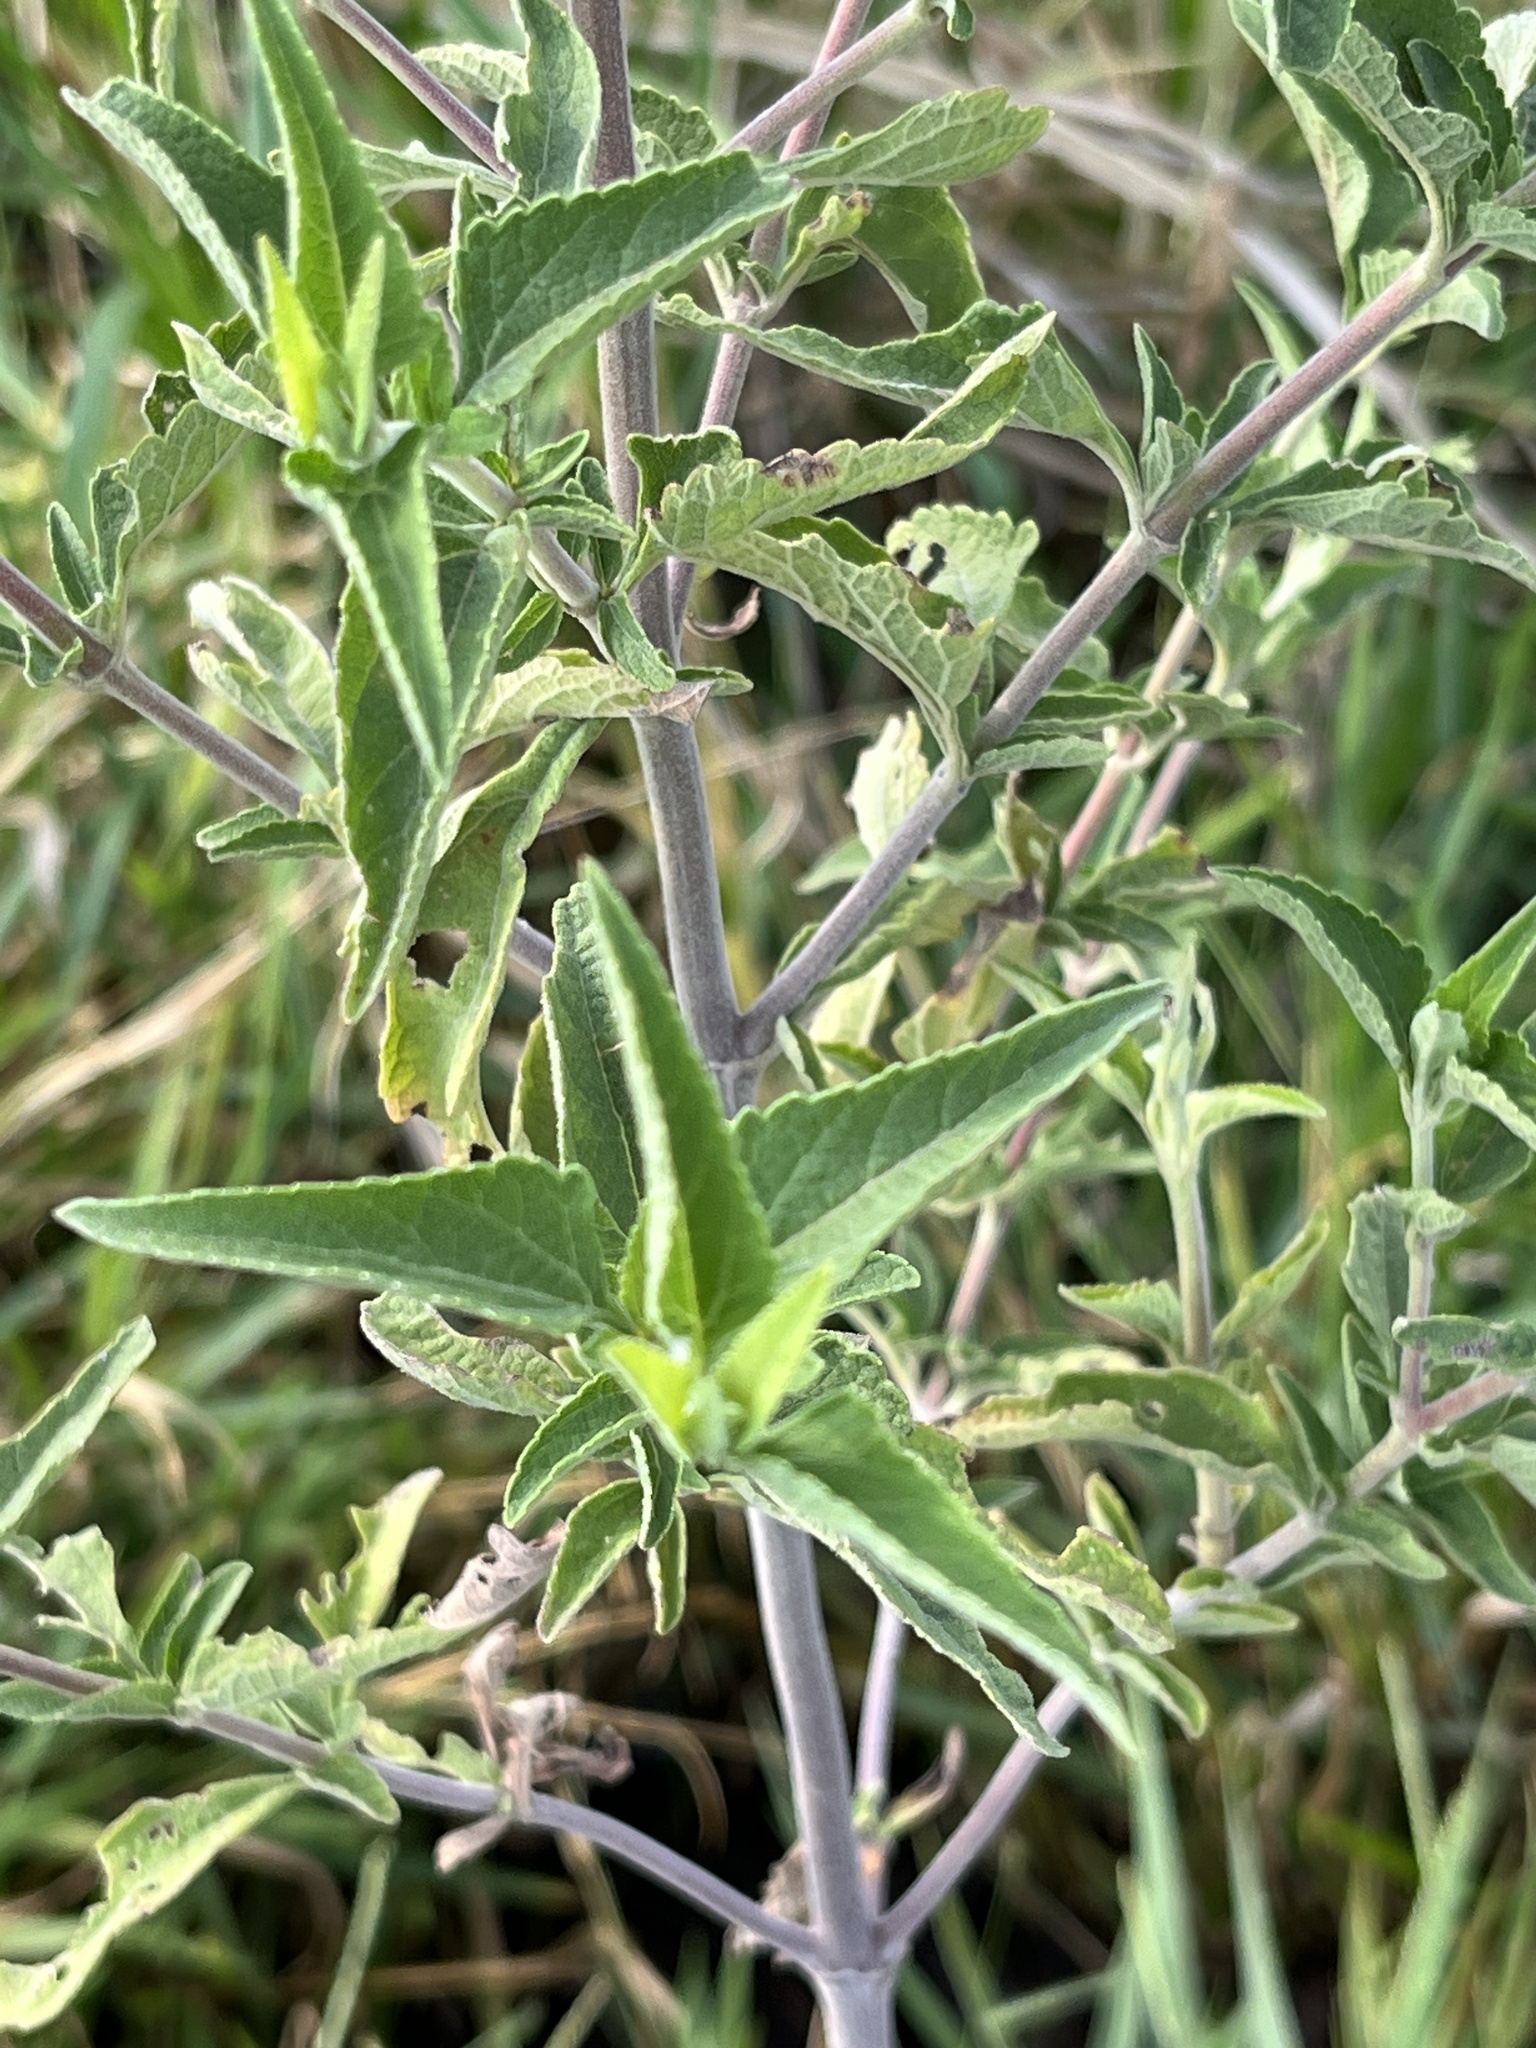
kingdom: Plantae
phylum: Tracheophyta
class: Magnoliopsida
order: Asterales
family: Asteraceae
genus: Austroeupatorium
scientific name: Austroeupatorium inulifolium
